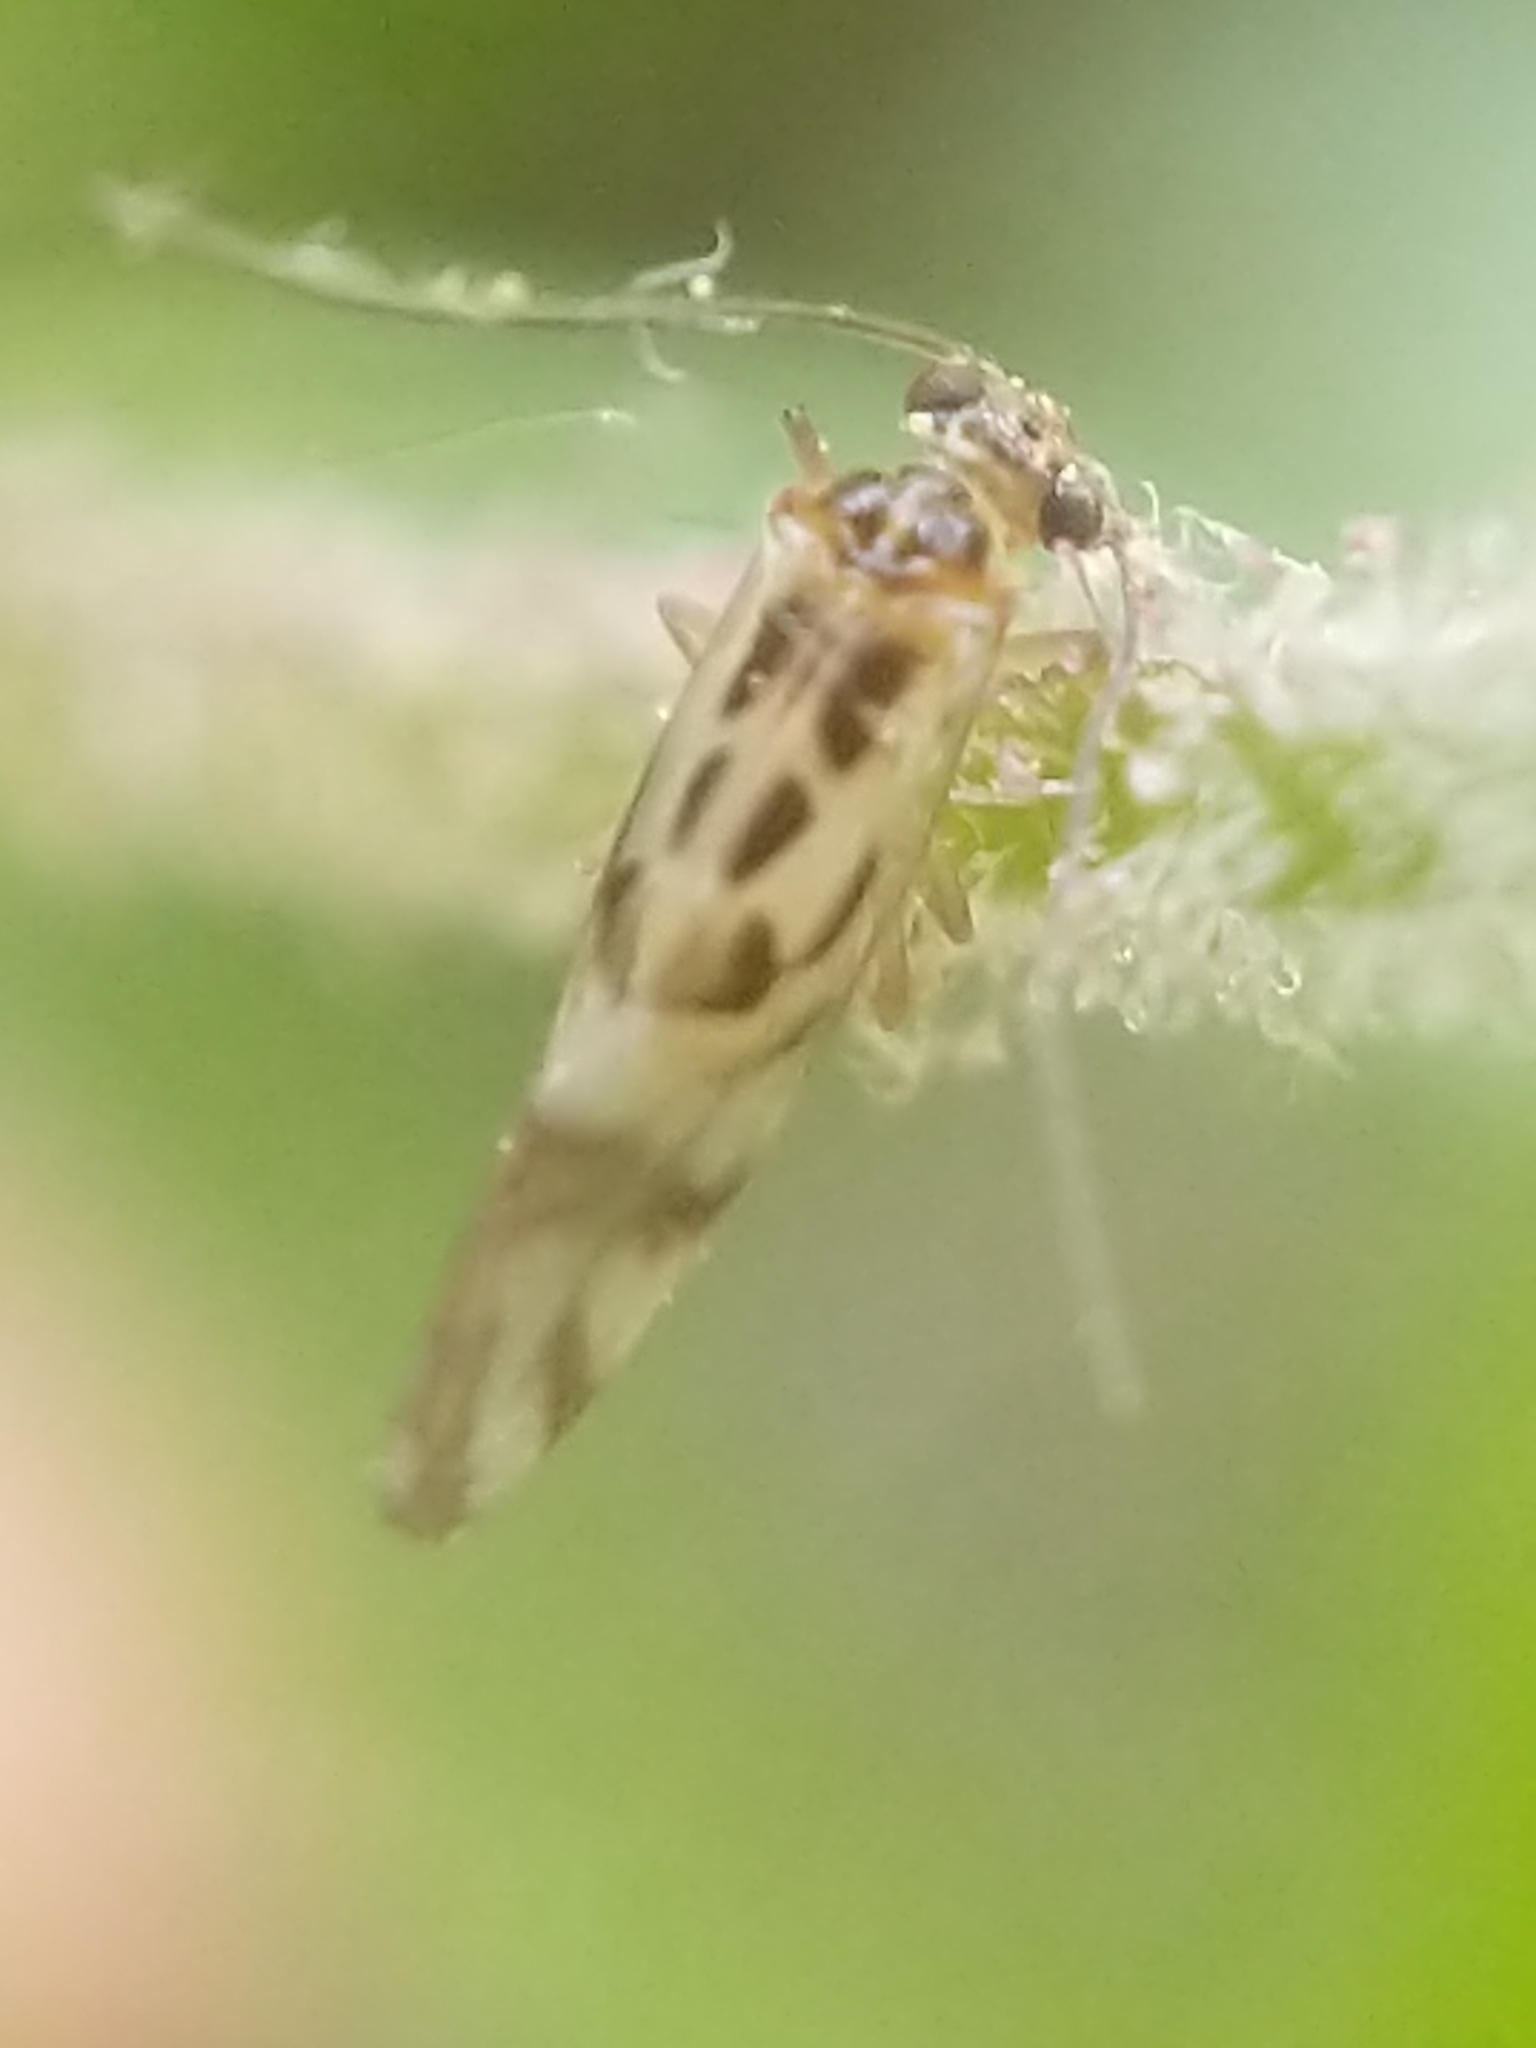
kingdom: Animalia
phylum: Arthropoda
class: Insecta
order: Psocodea
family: Stenopsocidae
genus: Graphopsocus
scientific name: Graphopsocus cruciatus
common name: Lizard bark louse
